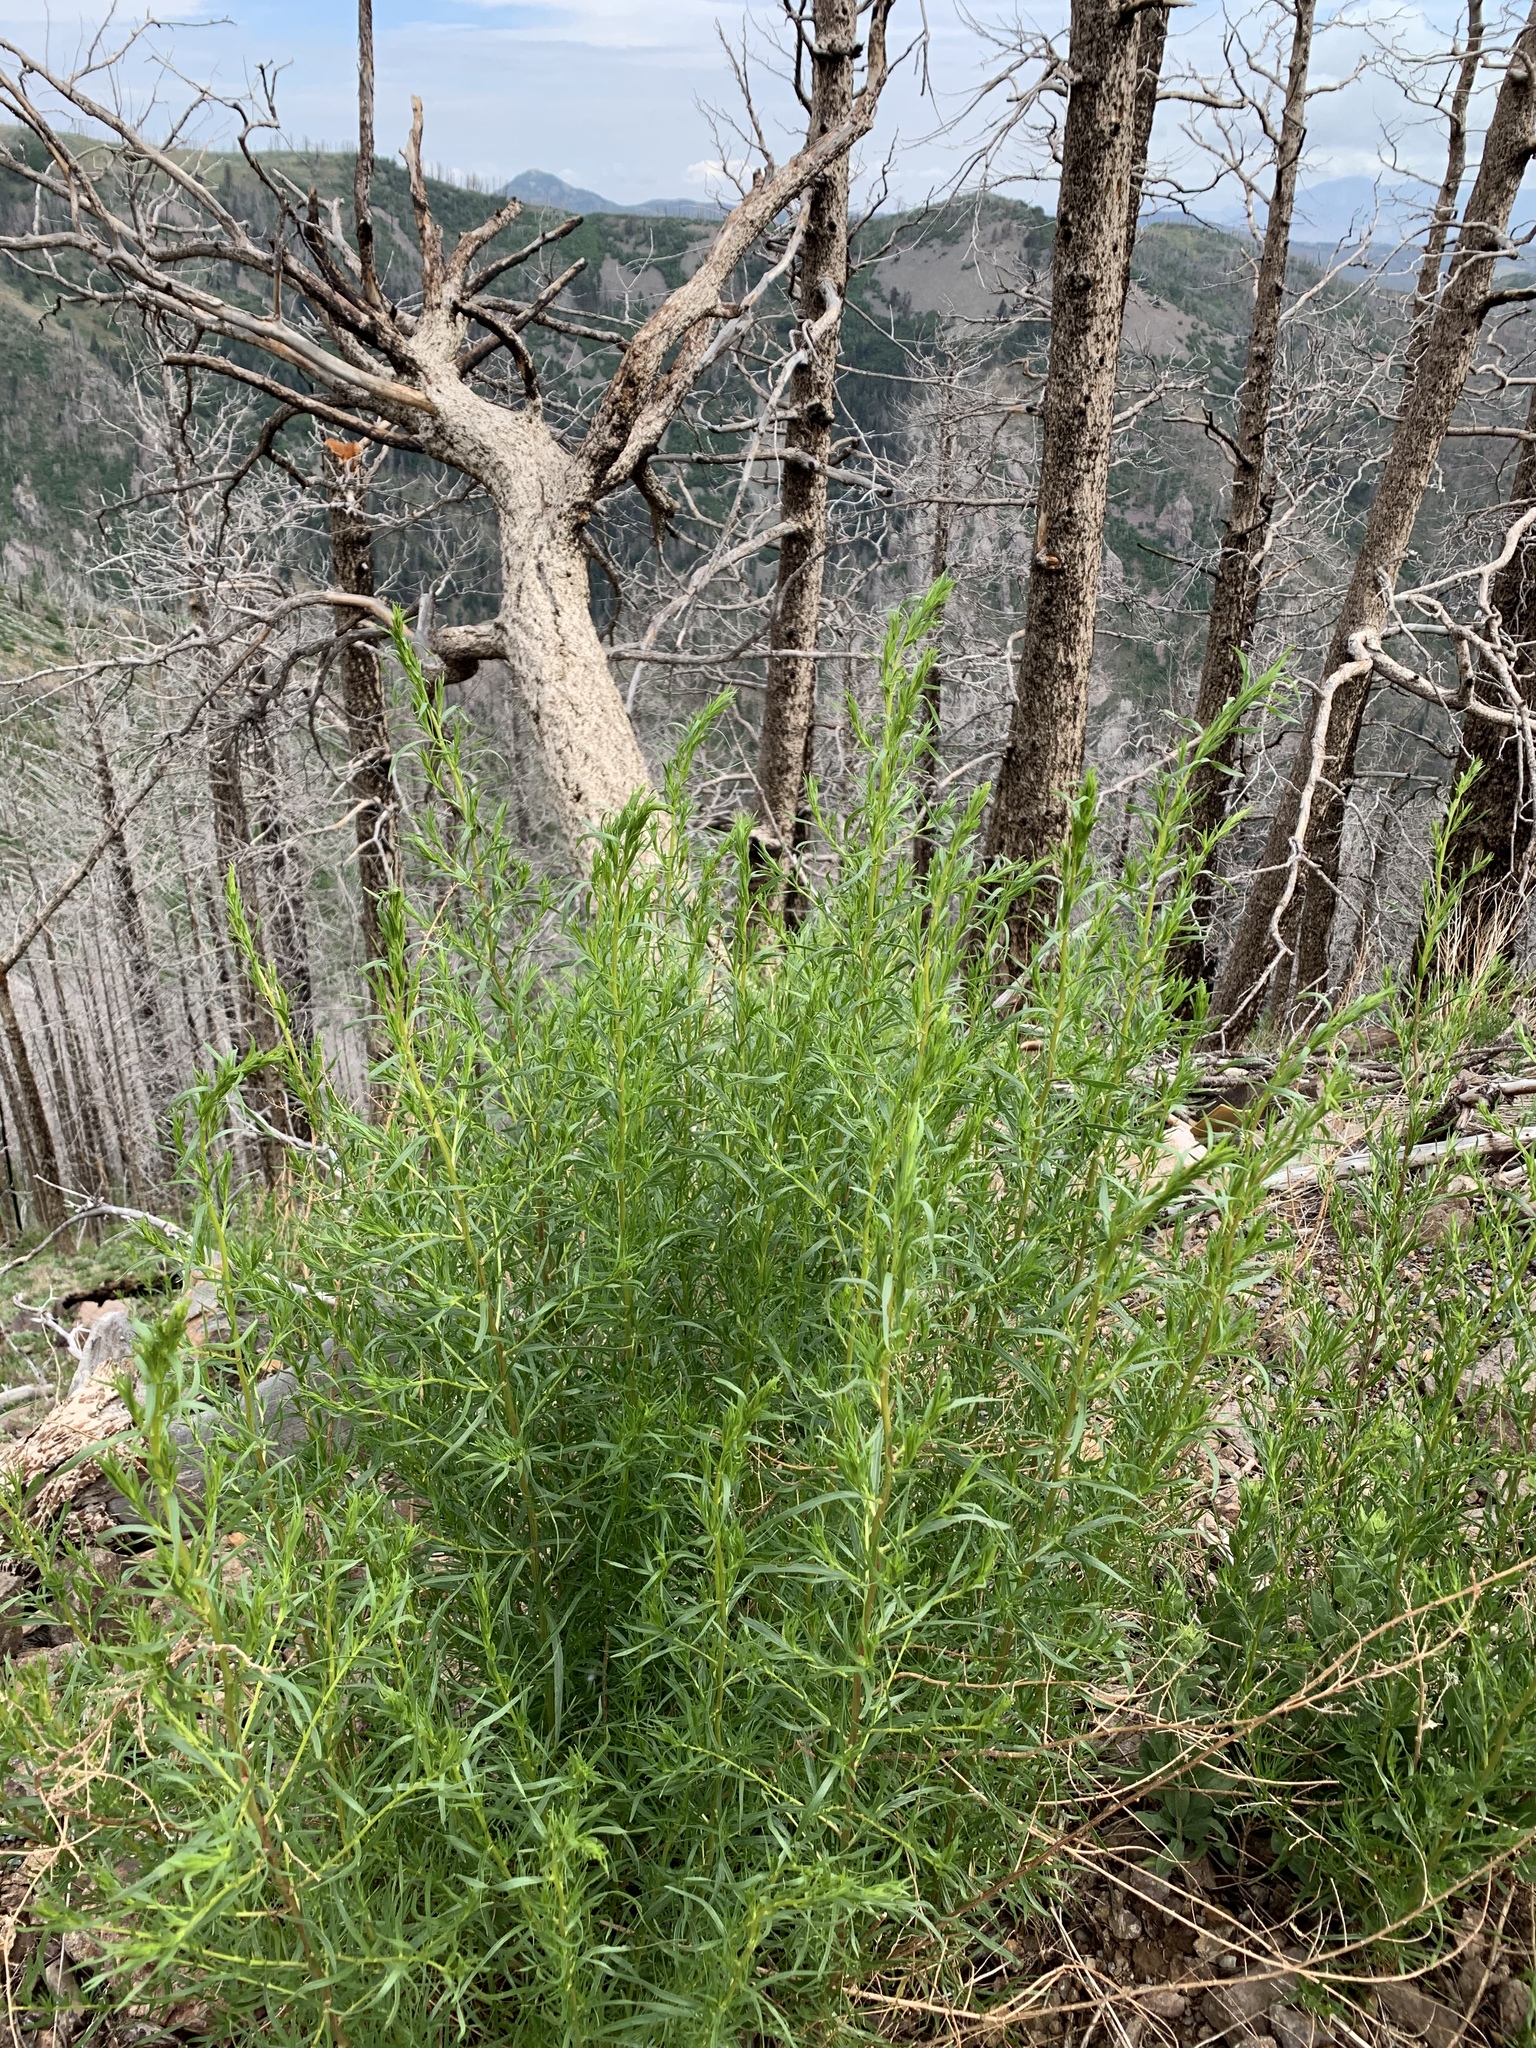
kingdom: Plantae
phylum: Tracheophyta
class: Magnoliopsida
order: Asterales
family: Asteraceae
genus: Artemisia
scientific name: Artemisia carruthii
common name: Carruth wormwood
